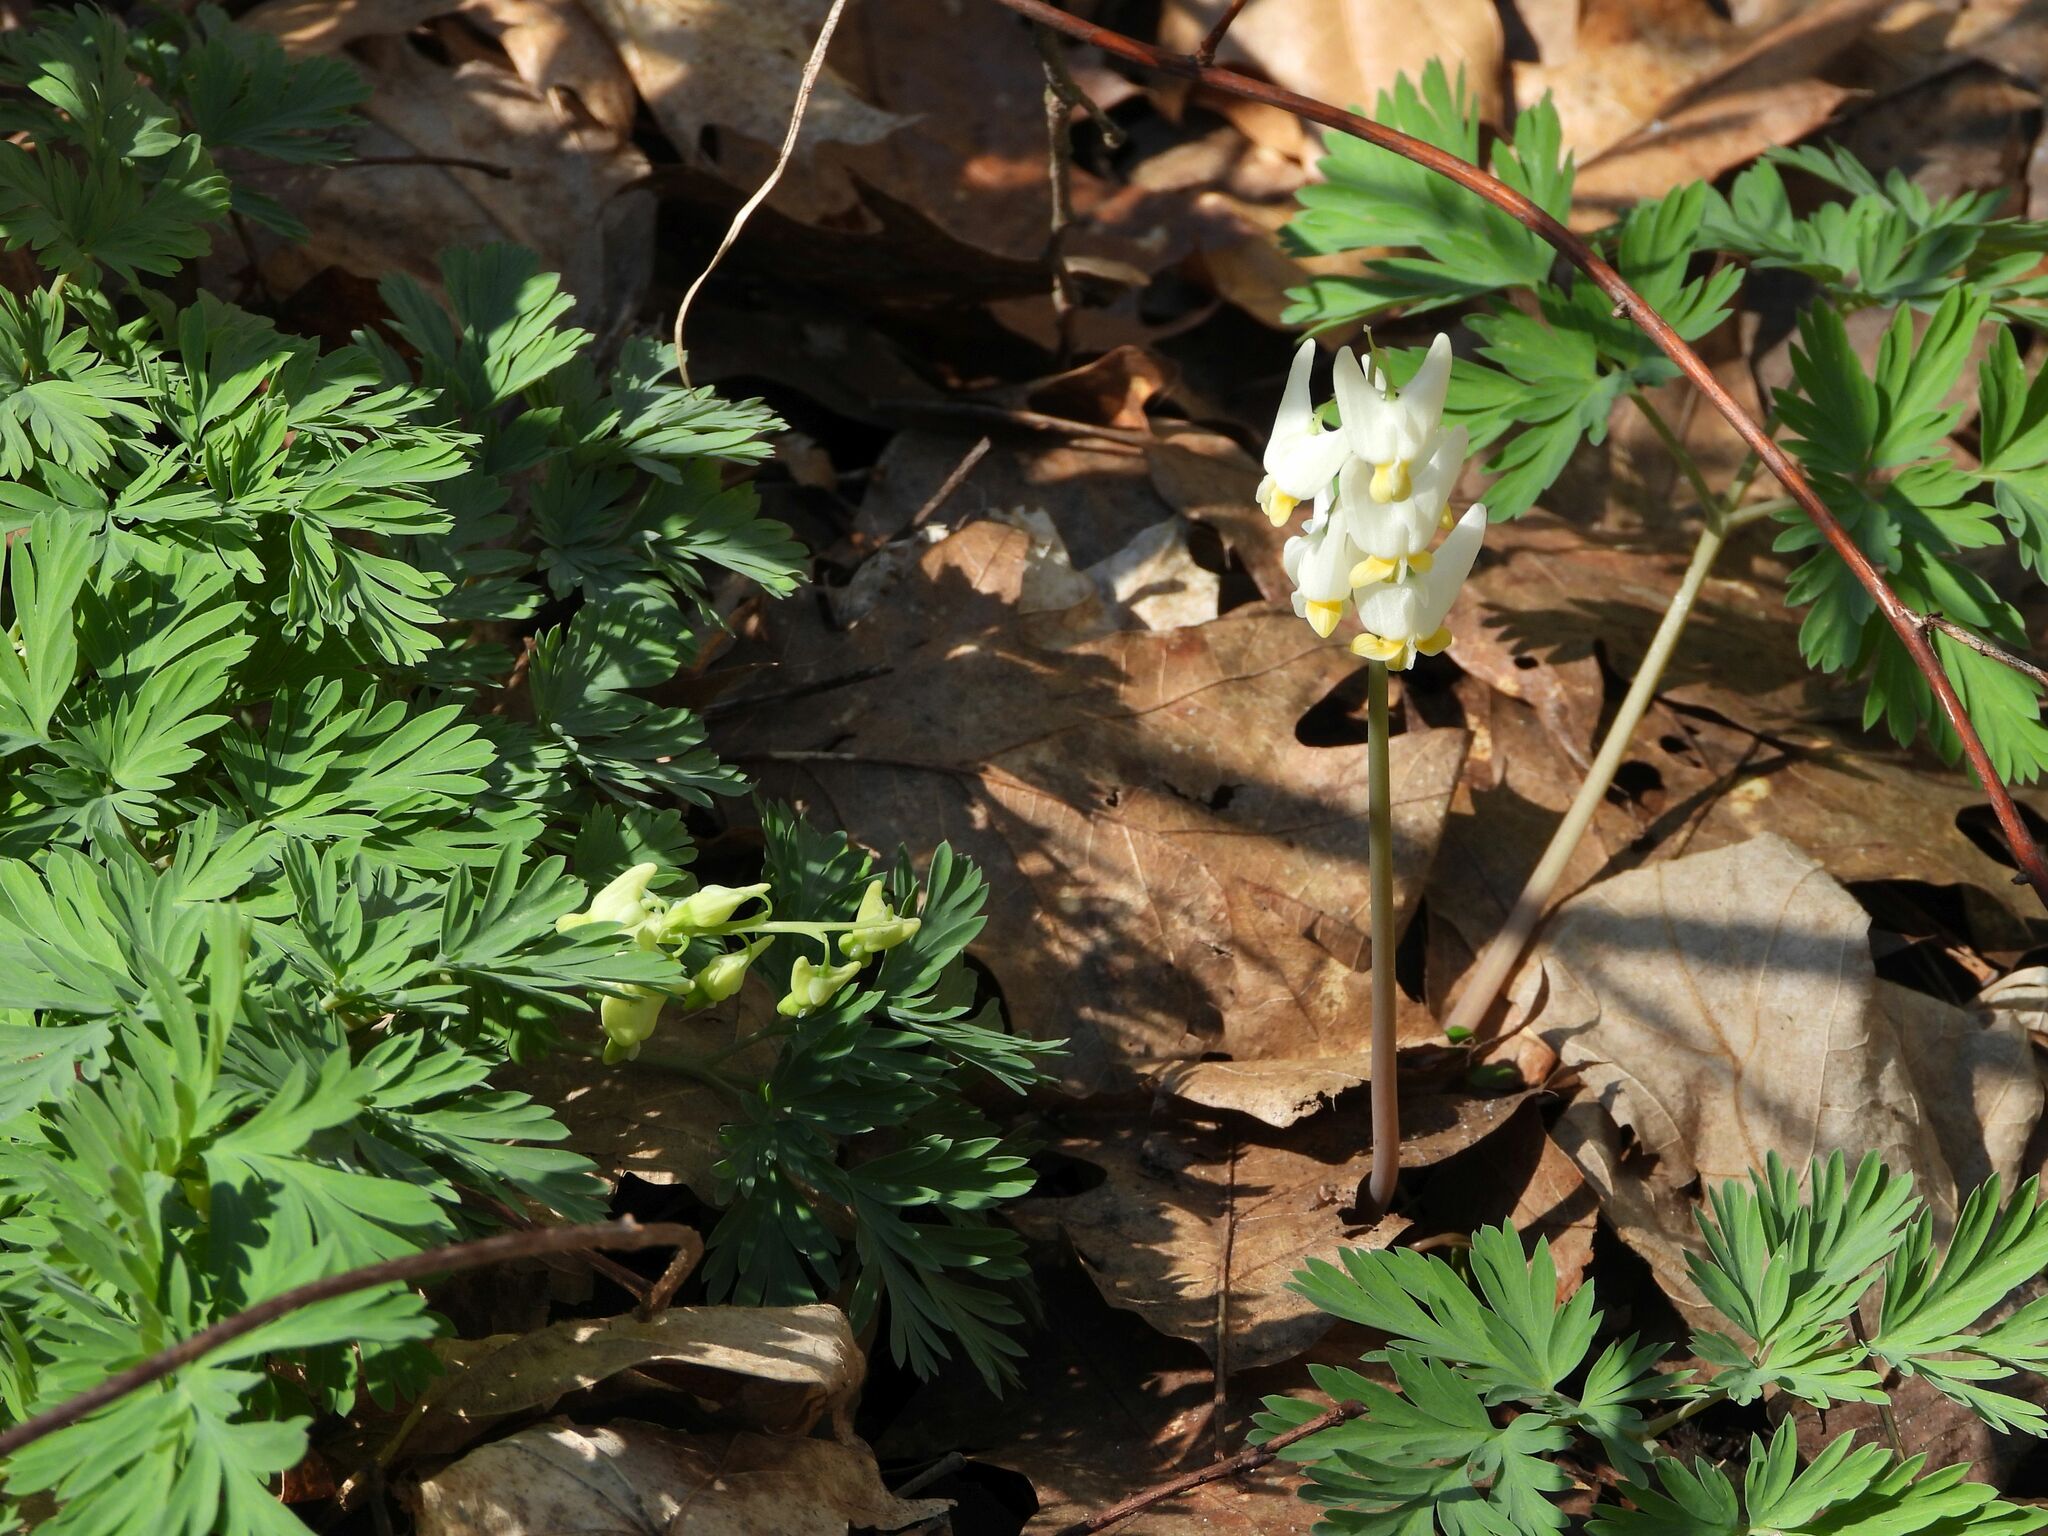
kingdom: Plantae
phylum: Tracheophyta
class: Magnoliopsida
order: Ranunculales
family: Papaveraceae
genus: Dicentra
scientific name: Dicentra cucullaria
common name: Dutchman's breeches
